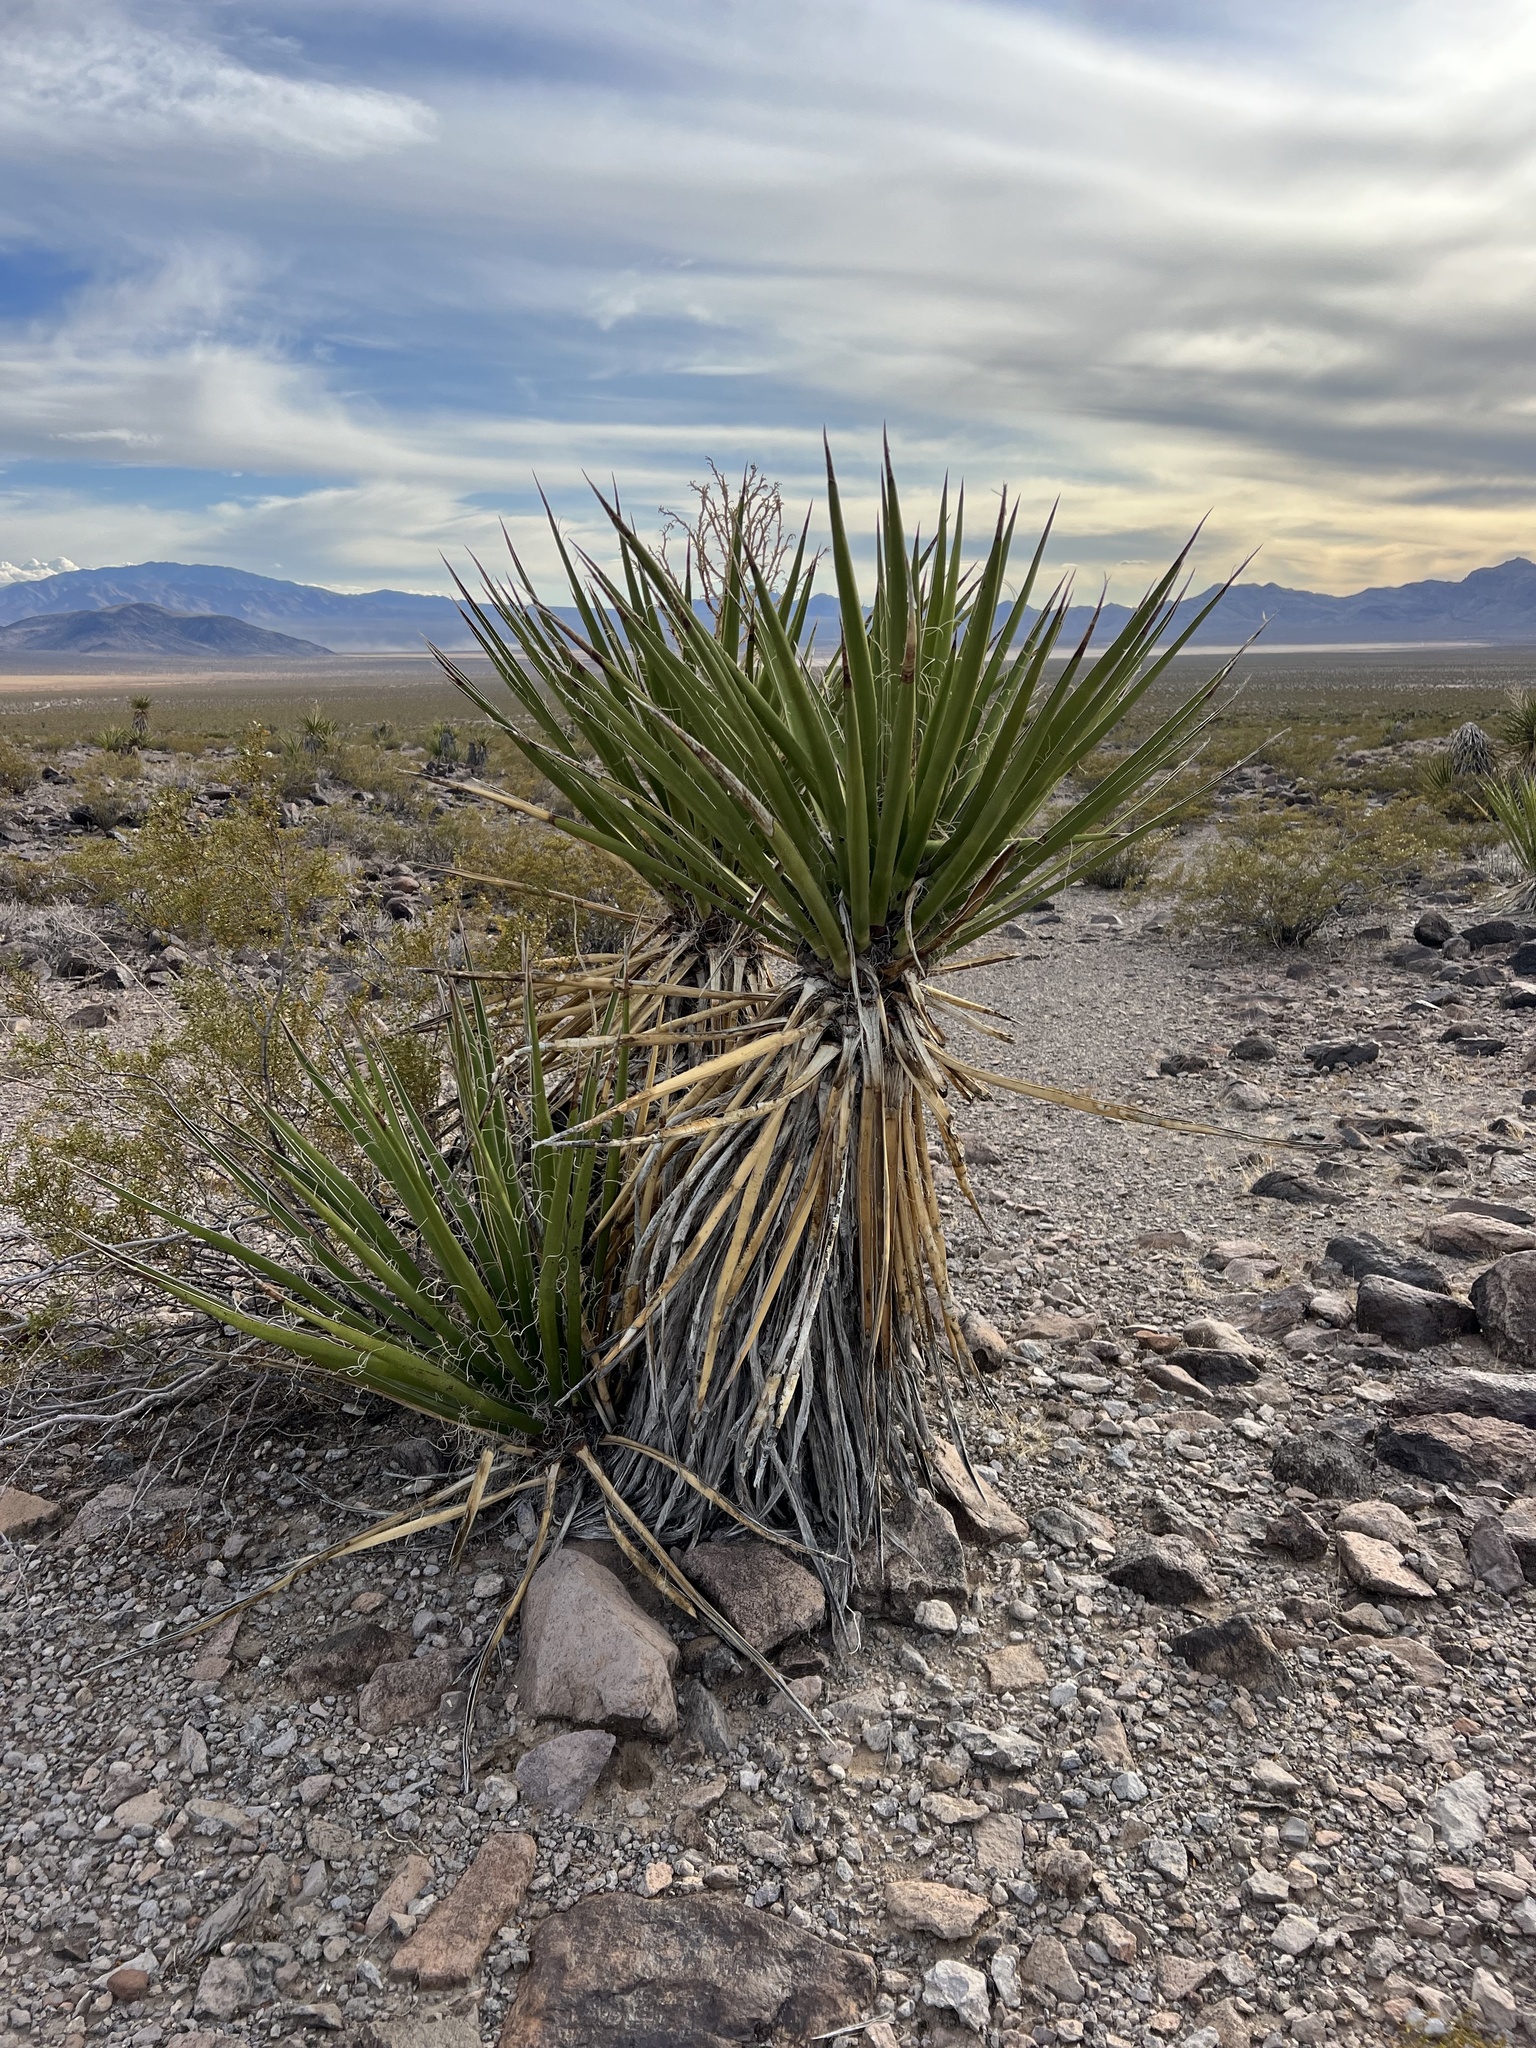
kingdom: Plantae
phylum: Tracheophyta
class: Liliopsida
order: Asparagales
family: Asparagaceae
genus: Yucca
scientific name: Yucca schidigera
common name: Mojave yucca
